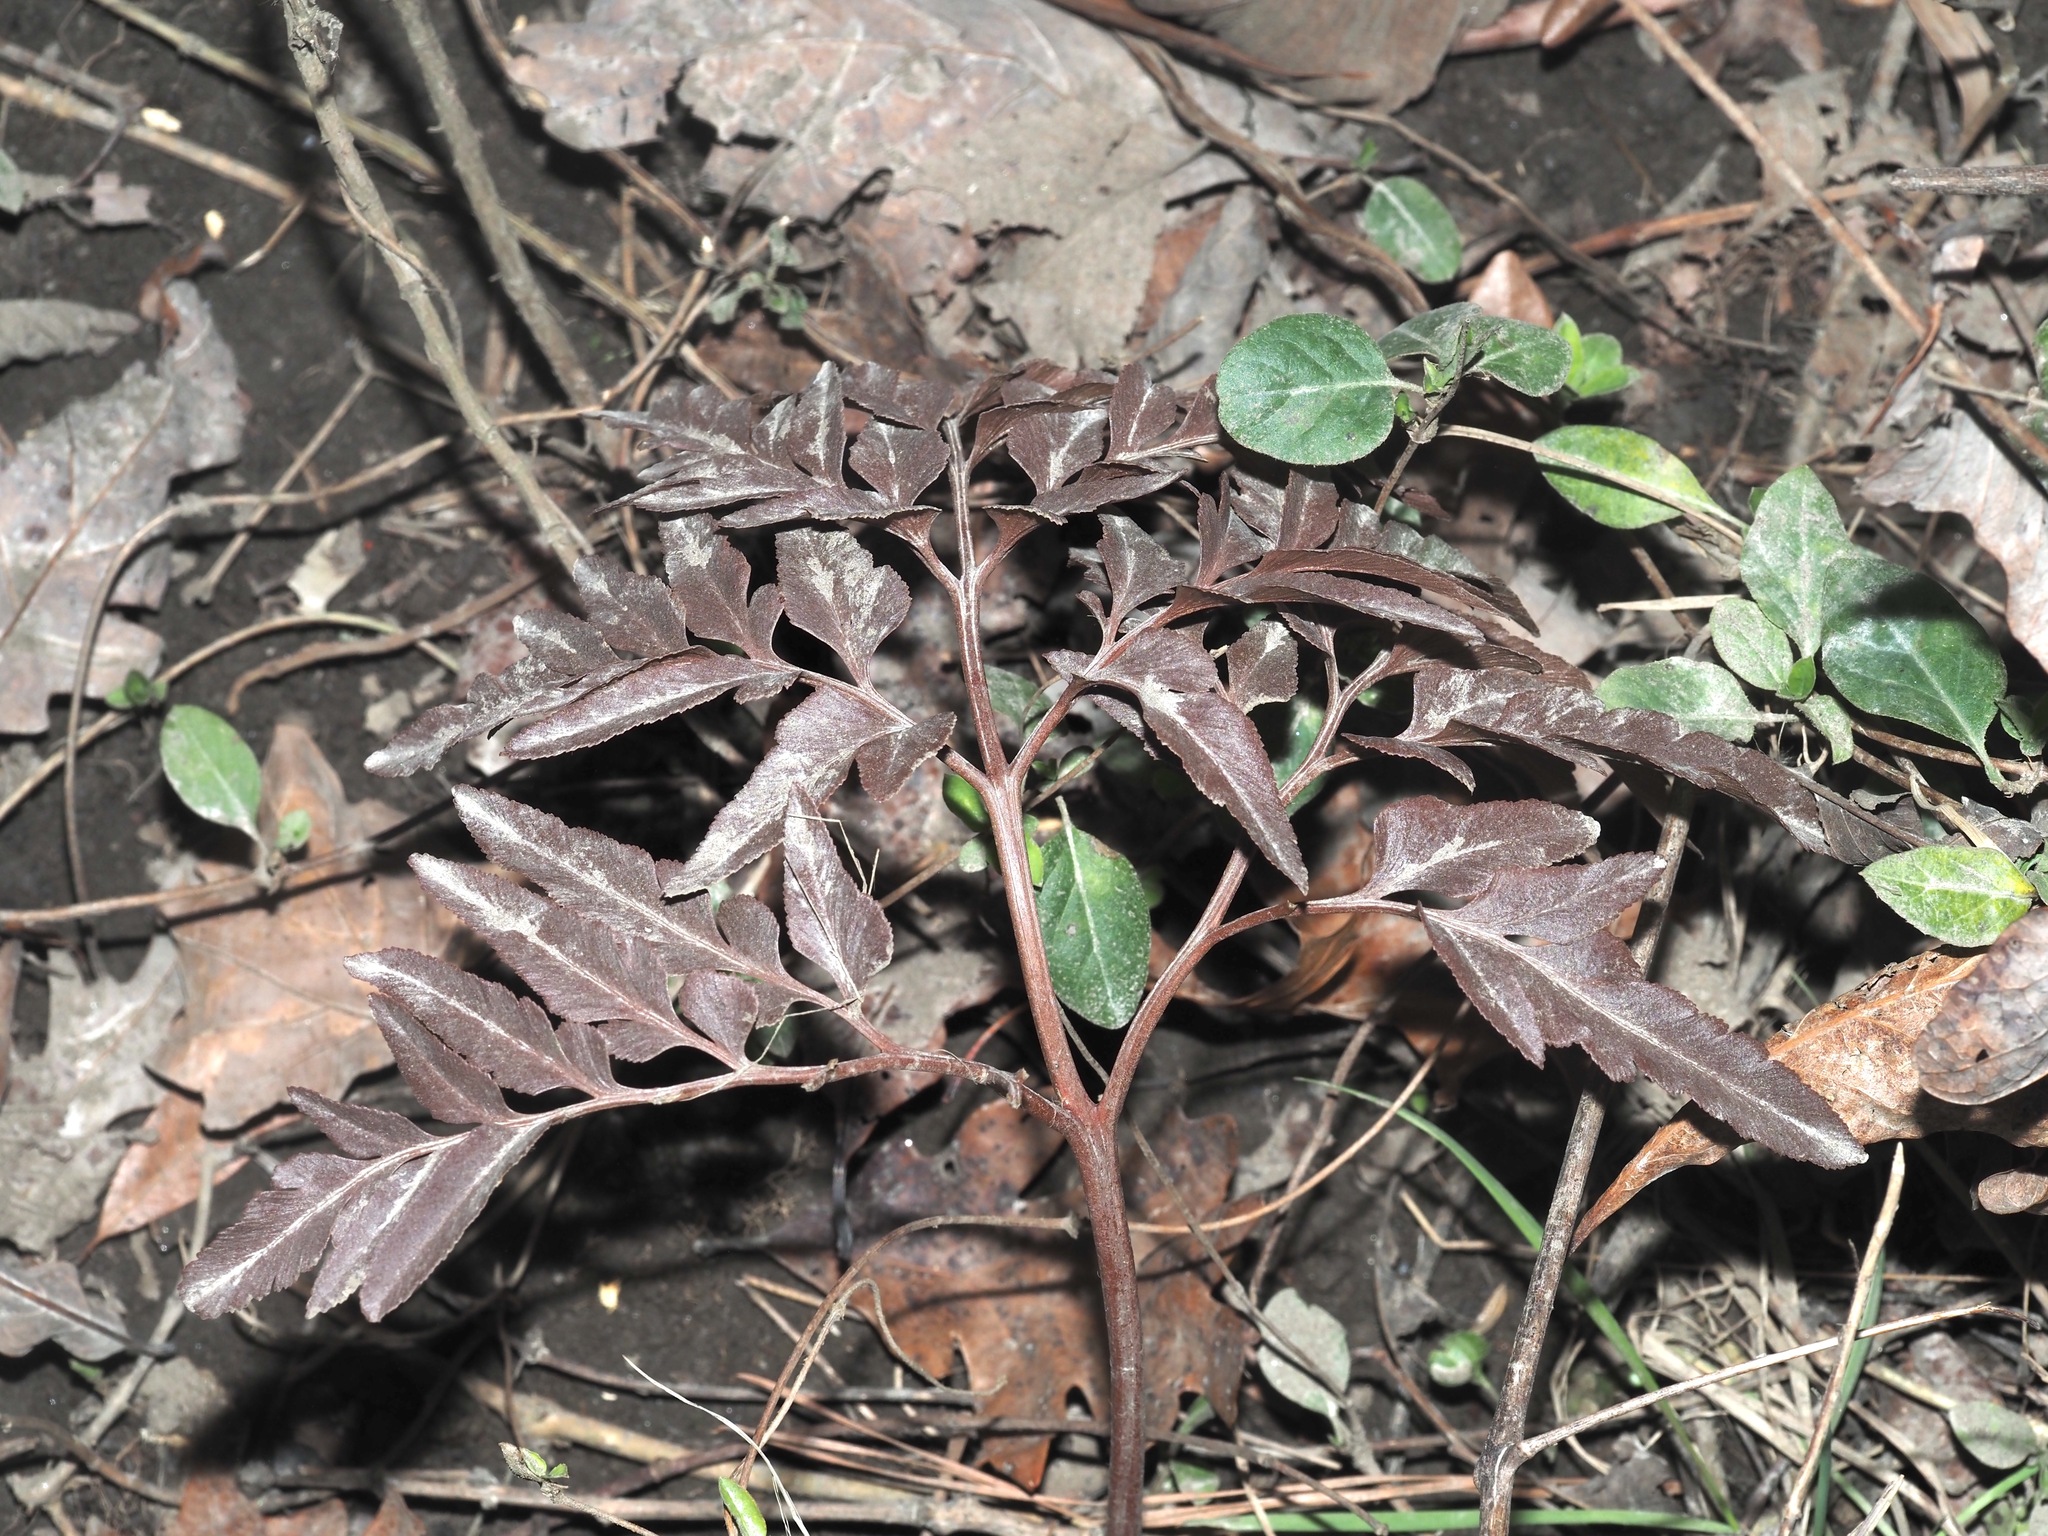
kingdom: Plantae
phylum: Tracheophyta
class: Polypodiopsida
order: Ophioglossales
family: Ophioglossaceae
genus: Sceptridium
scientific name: Sceptridium dissectum
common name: Cut-leaved grapefern
